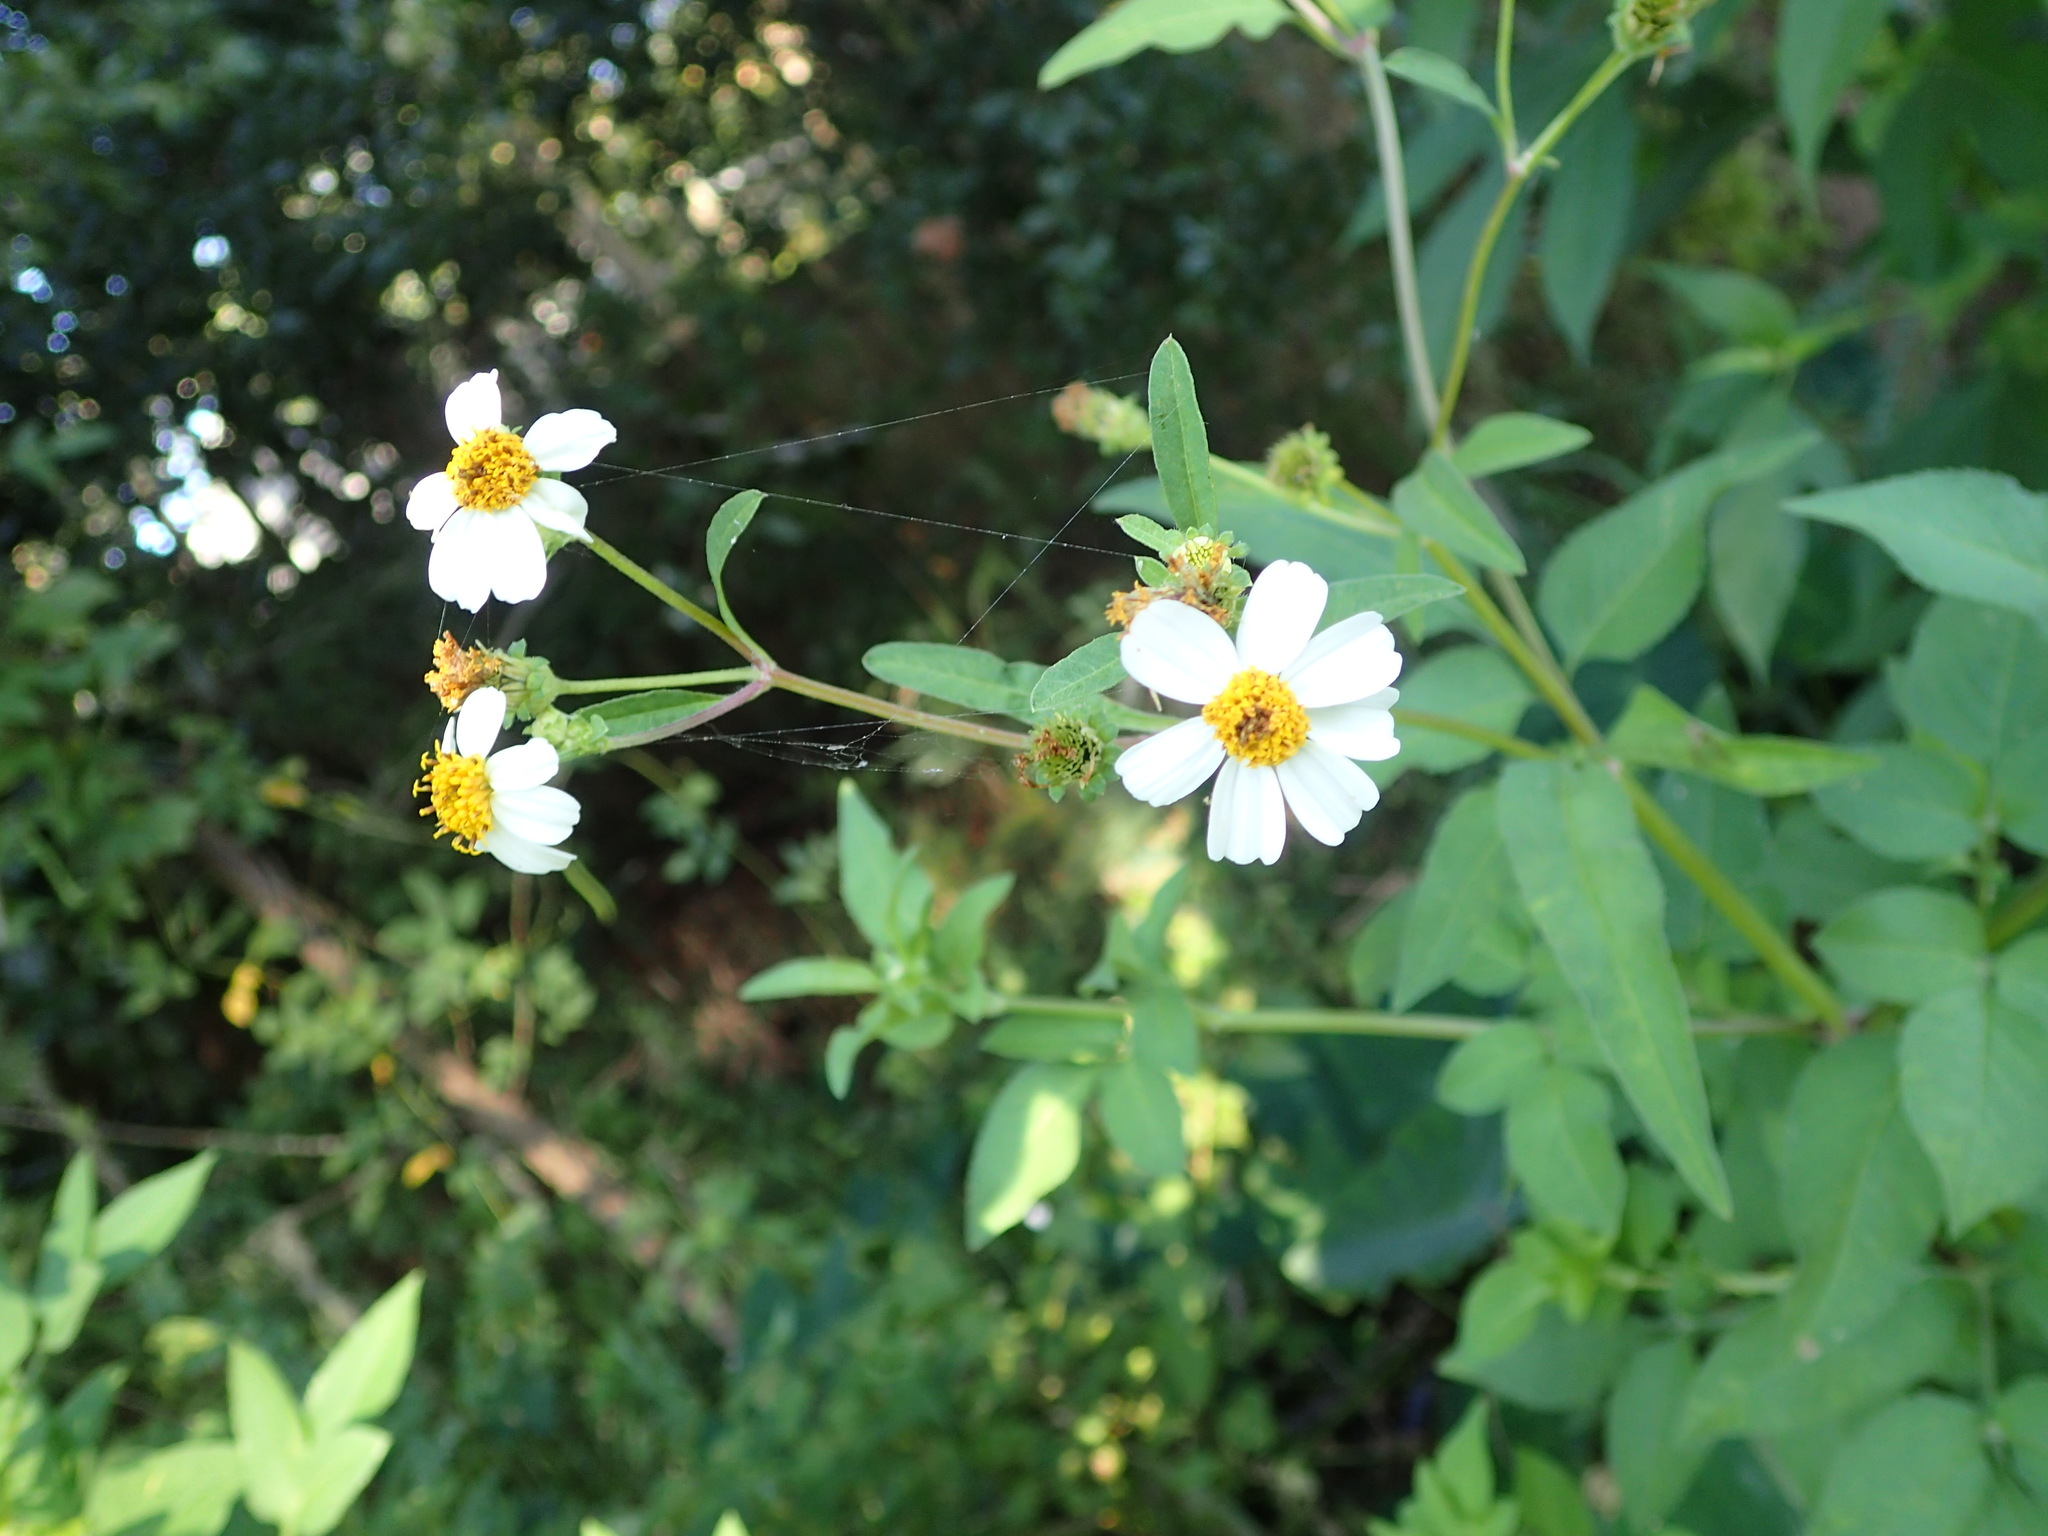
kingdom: Plantae
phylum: Tracheophyta
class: Magnoliopsida
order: Asterales
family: Asteraceae
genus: Bidens
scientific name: Bidens alba
